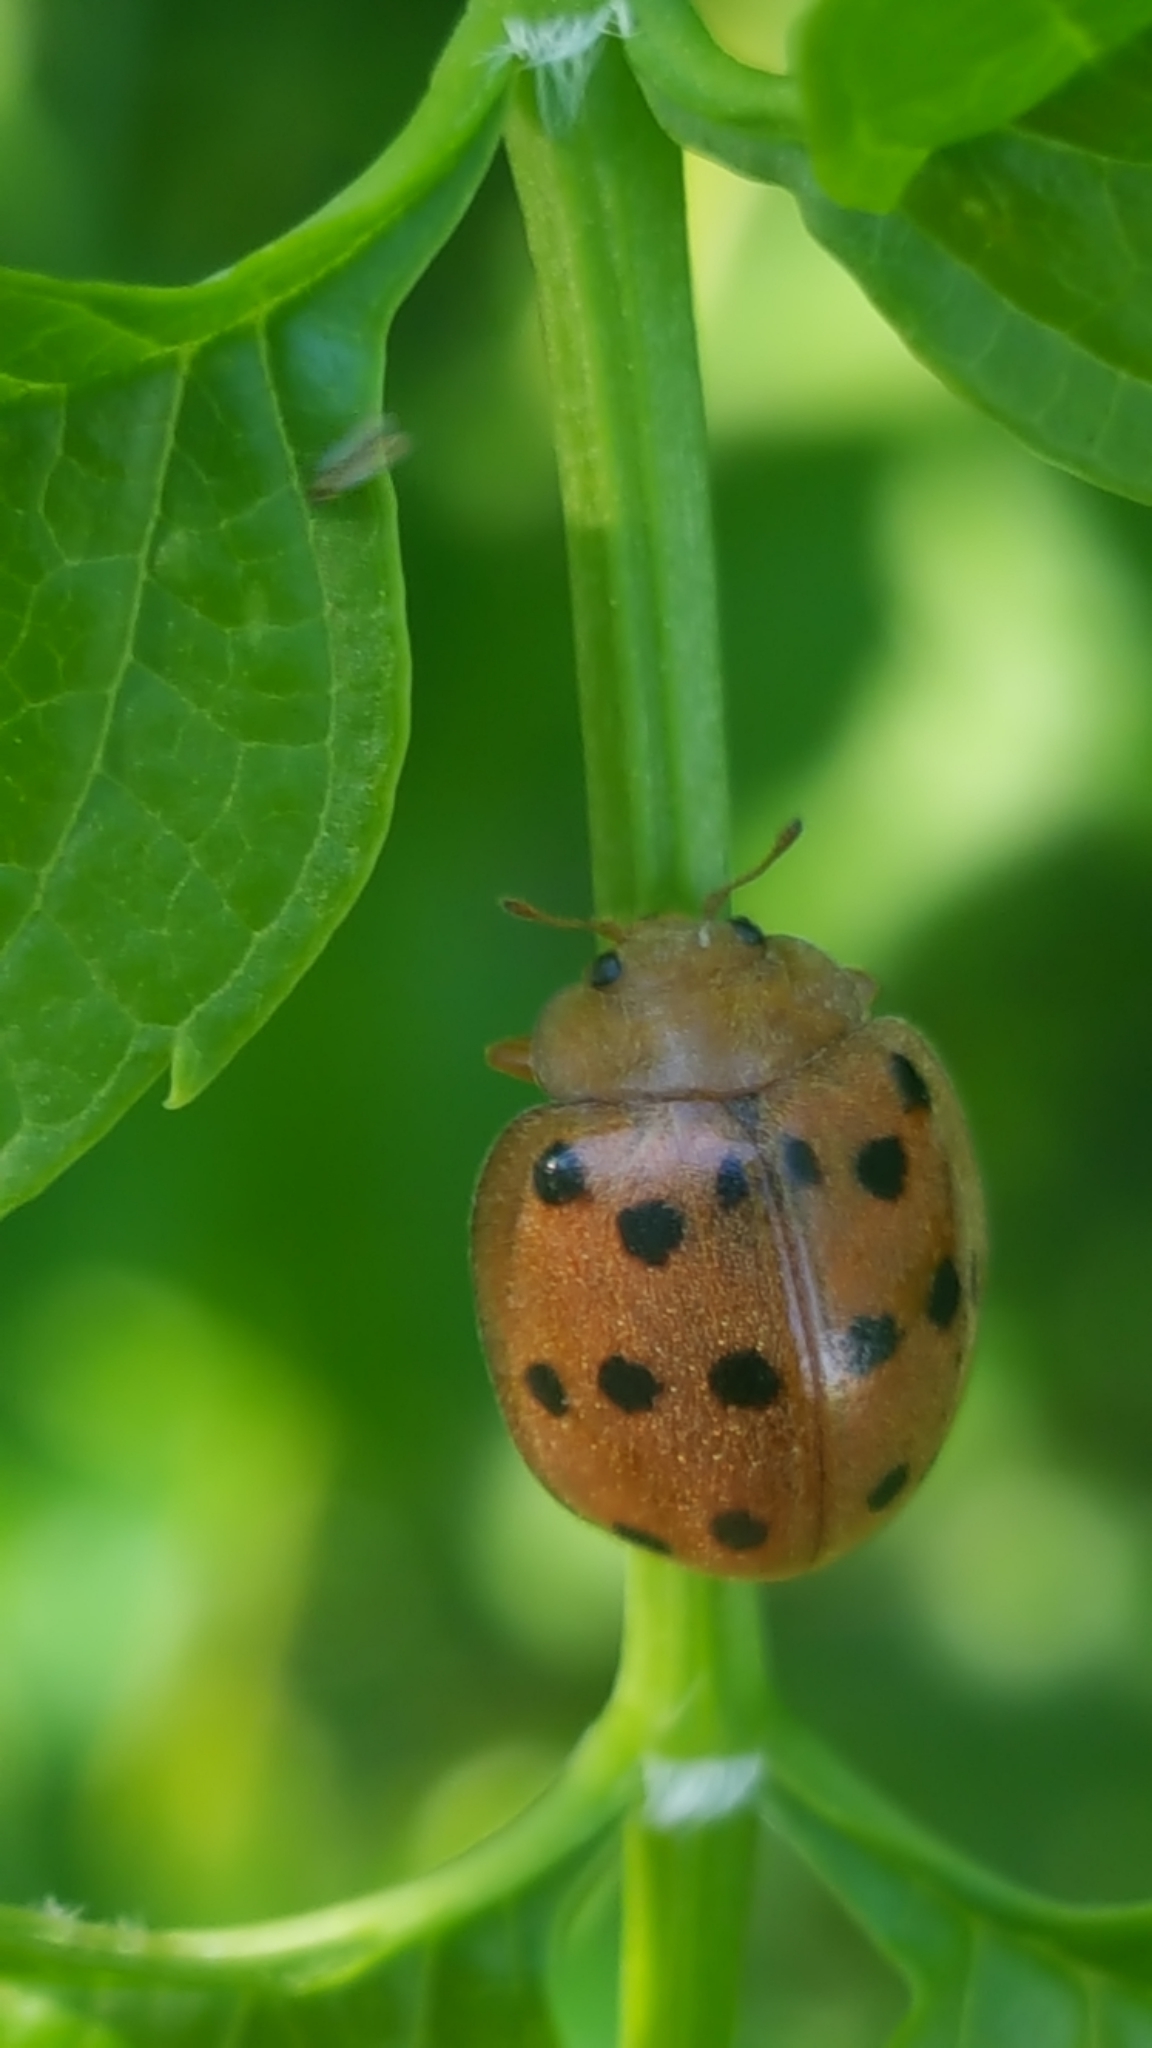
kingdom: Animalia
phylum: Arthropoda
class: Insecta
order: Coleoptera
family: Coccinellidae
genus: Epilachna
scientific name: Epilachna varivestis
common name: Ladybird beetle
